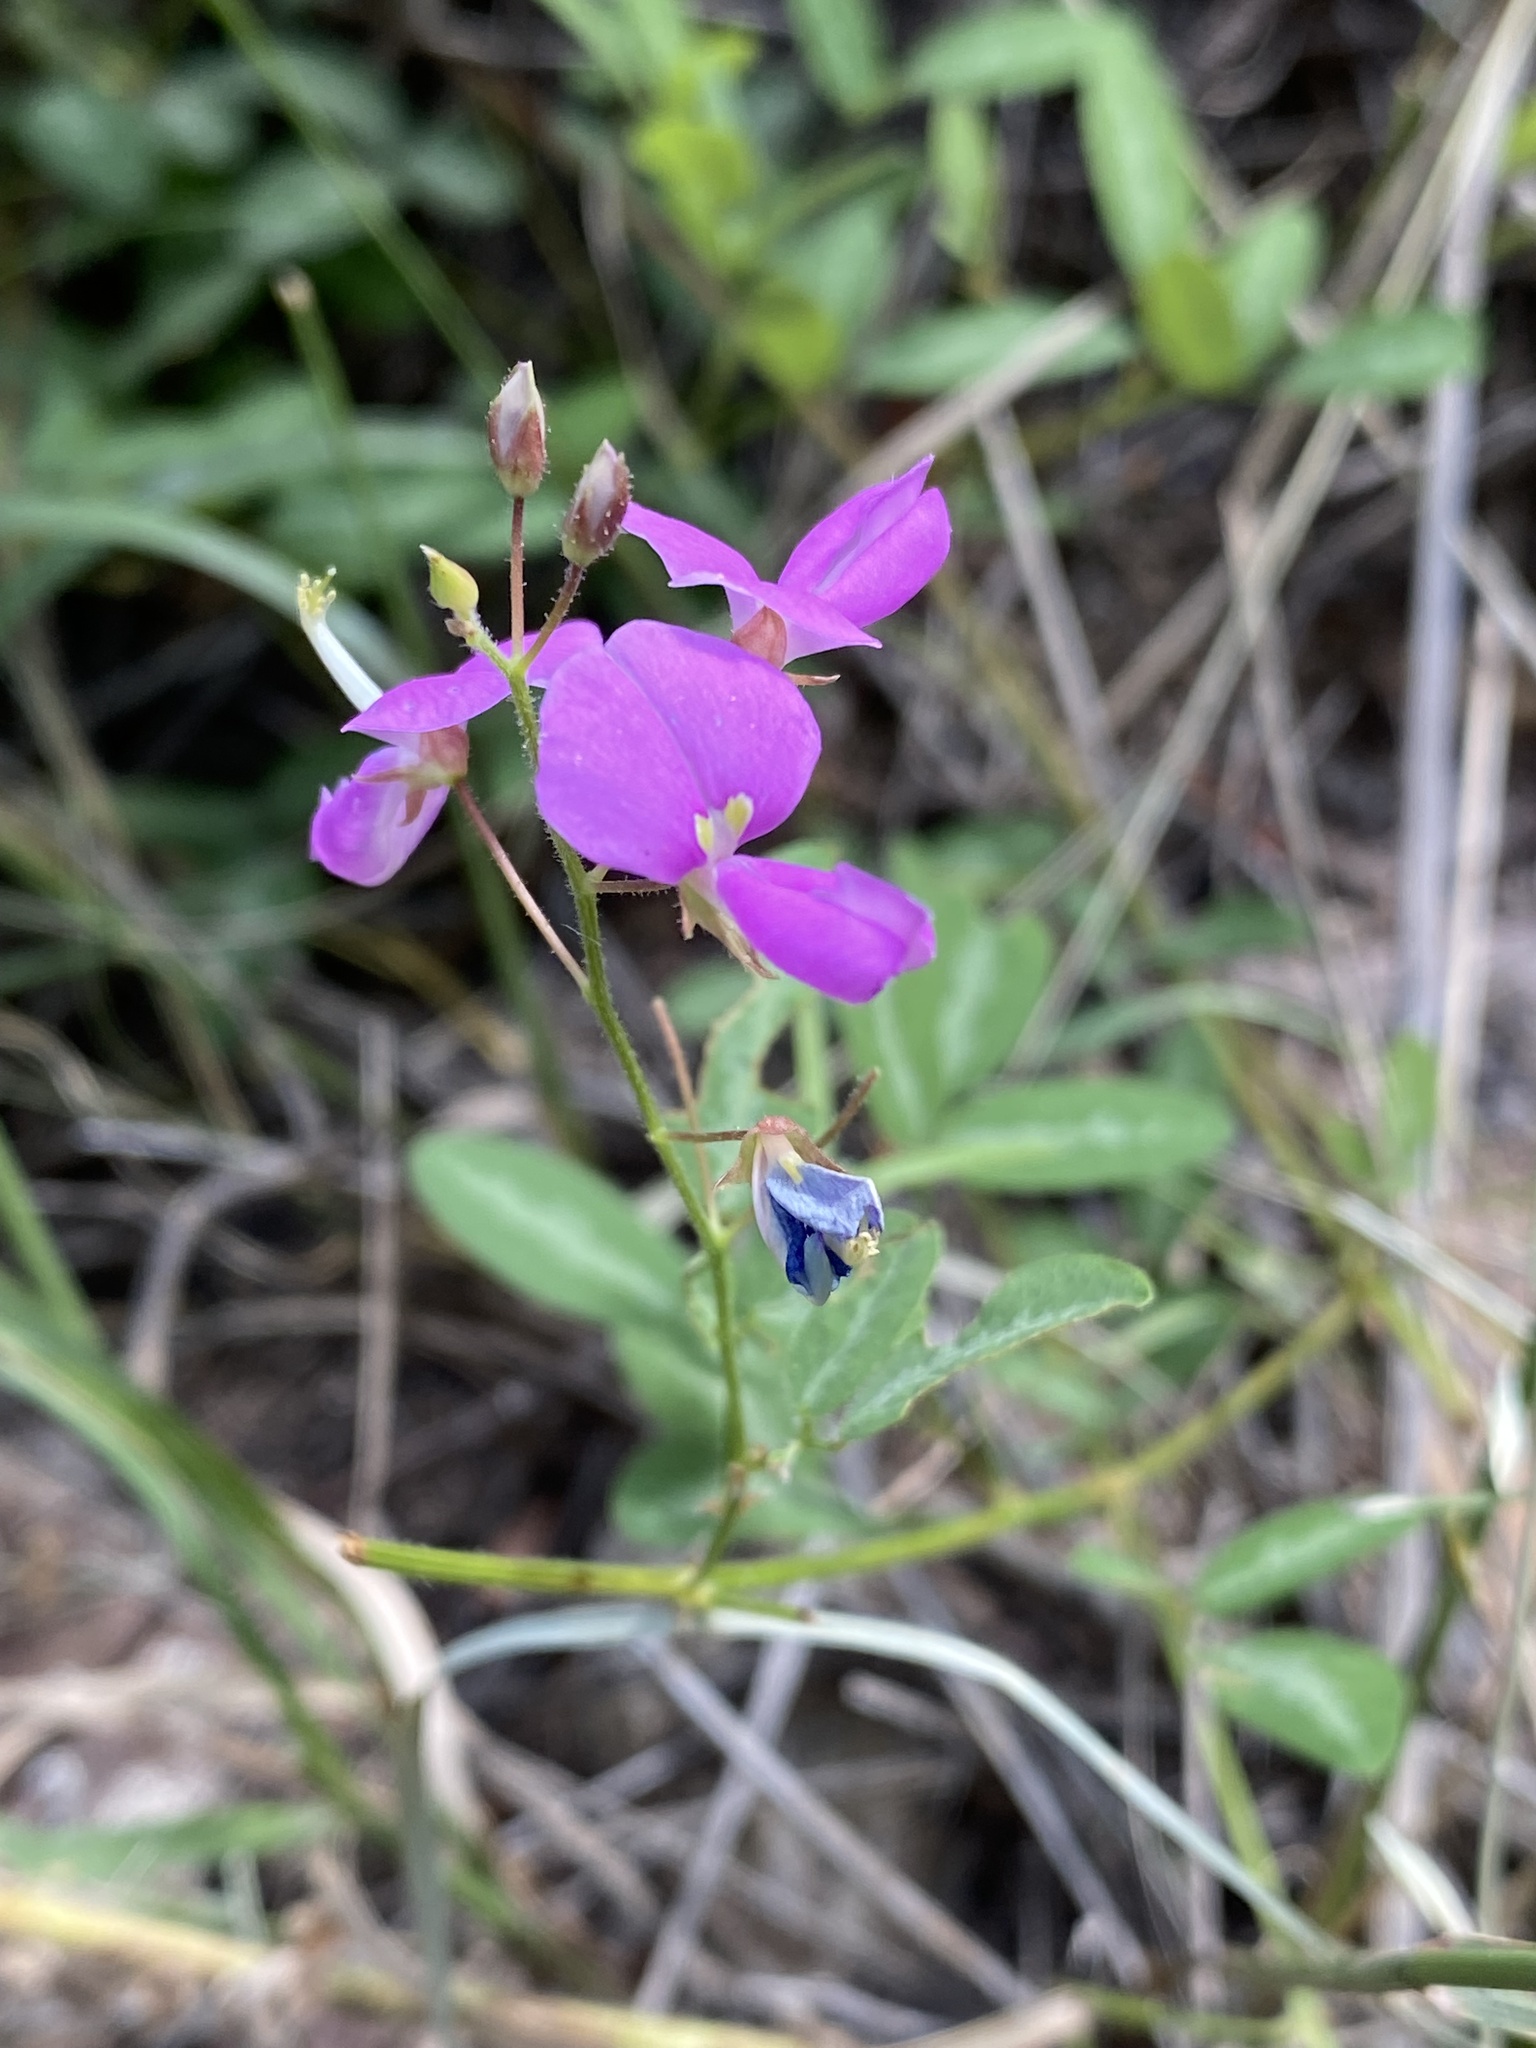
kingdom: Plantae
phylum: Tracheophyta
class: Magnoliopsida
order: Fabales
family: Fabaceae
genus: Desmodium
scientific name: Desmodium batocaulon
